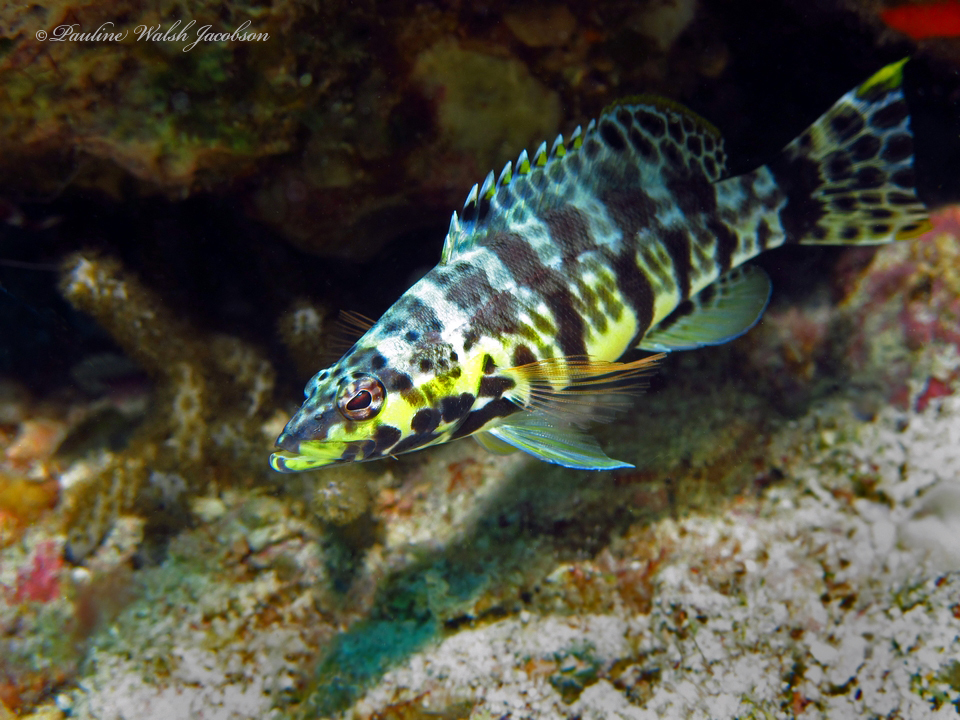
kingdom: Animalia
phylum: Chordata
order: Perciformes
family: Serranidae
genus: Serranus
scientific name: Serranus tigrinus
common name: Harlequin bass
